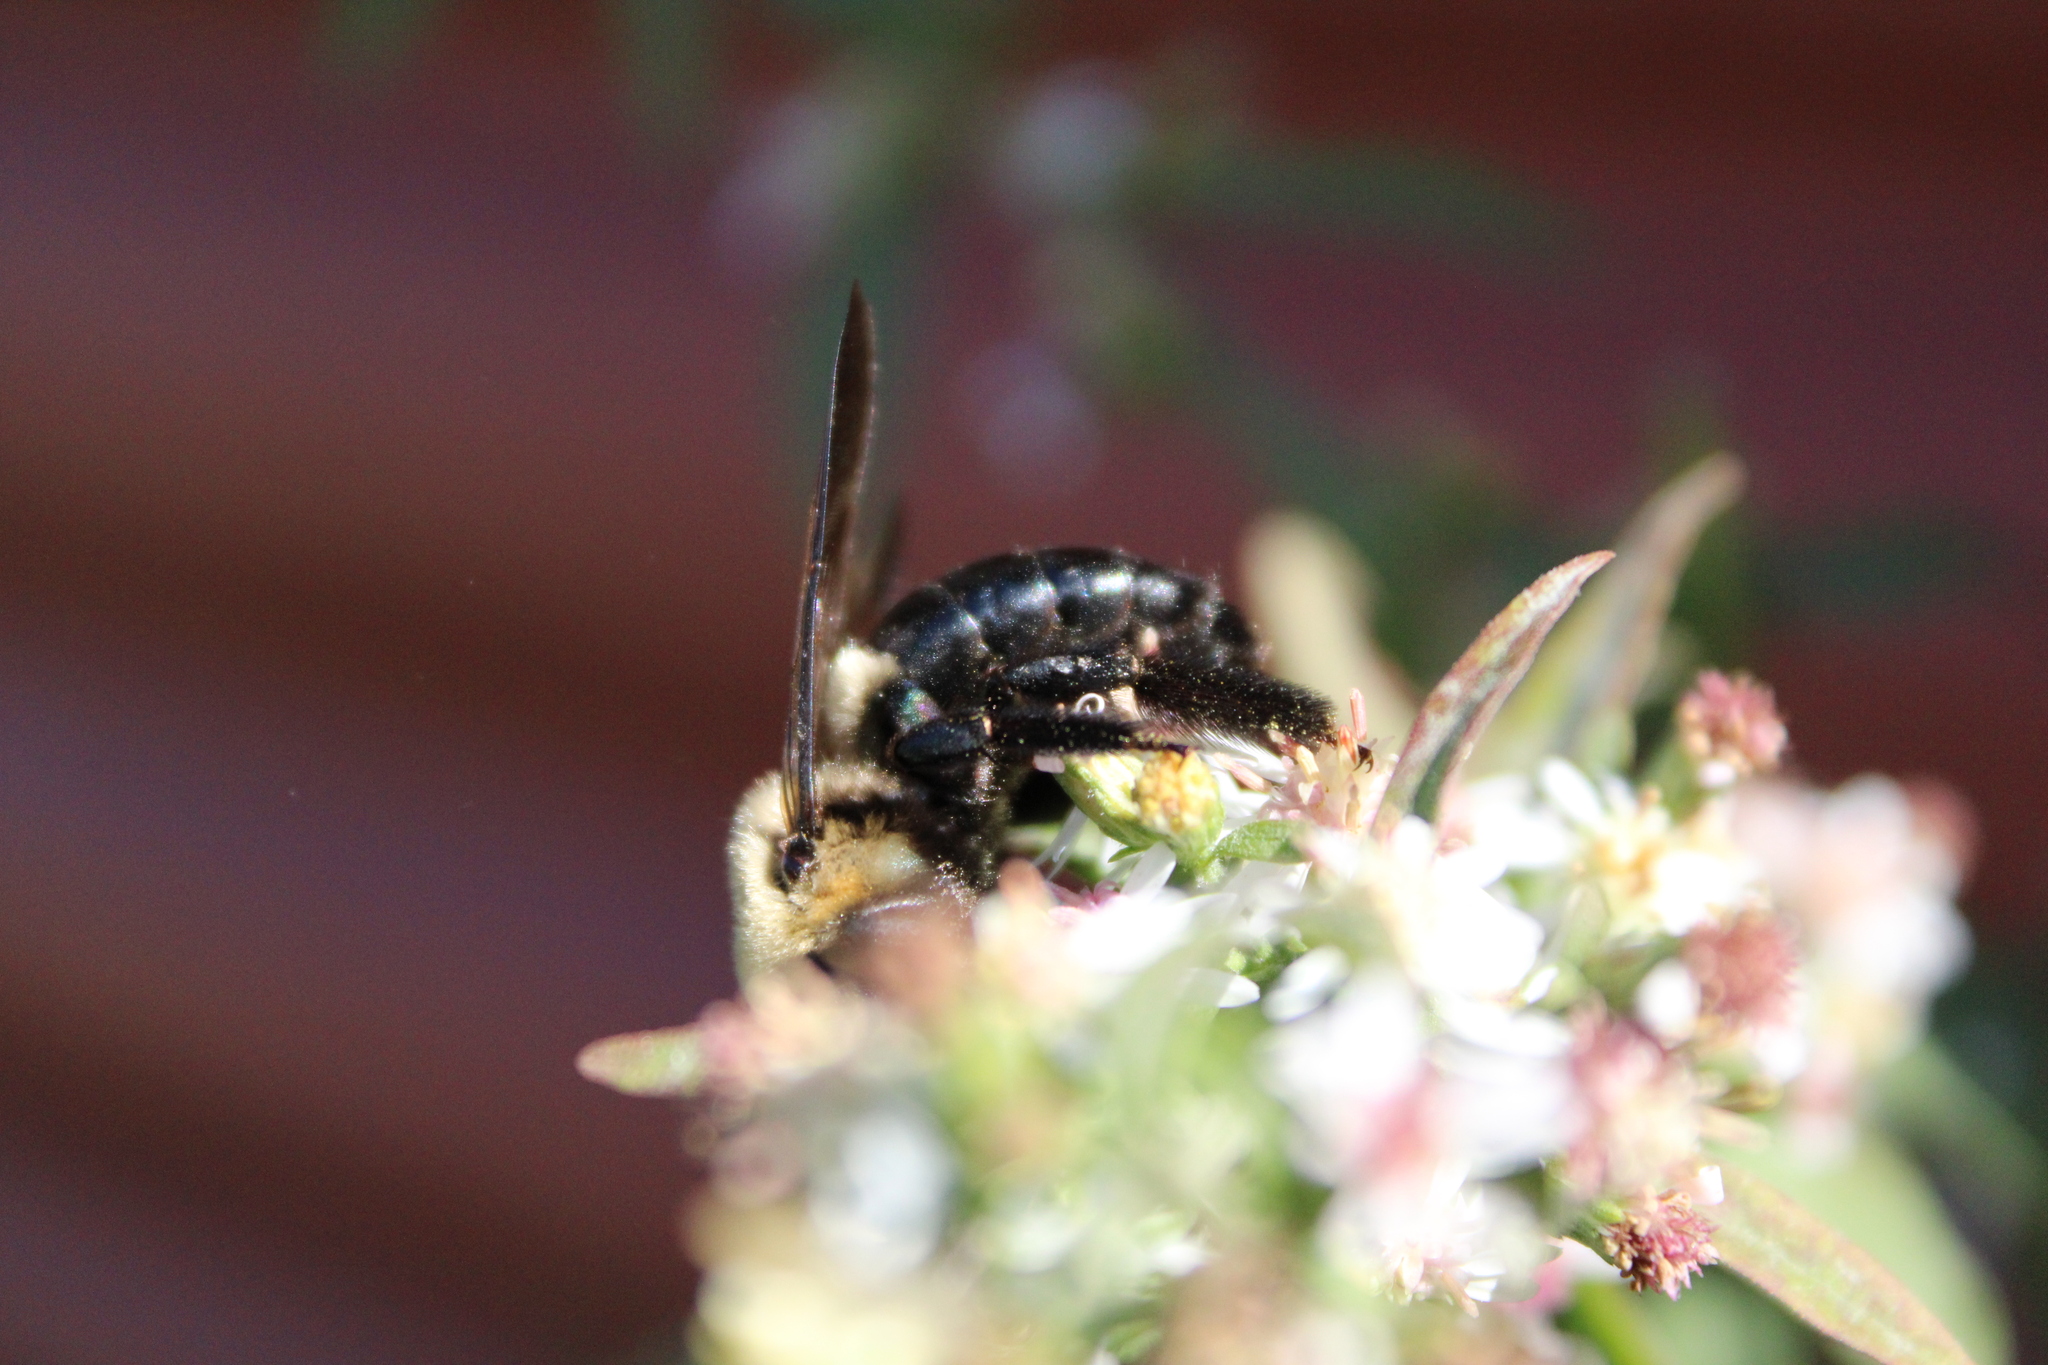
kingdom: Animalia
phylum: Arthropoda
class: Insecta
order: Hymenoptera
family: Apidae
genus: Xylocopa
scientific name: Xylocopa virginica
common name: Carpenter bee
